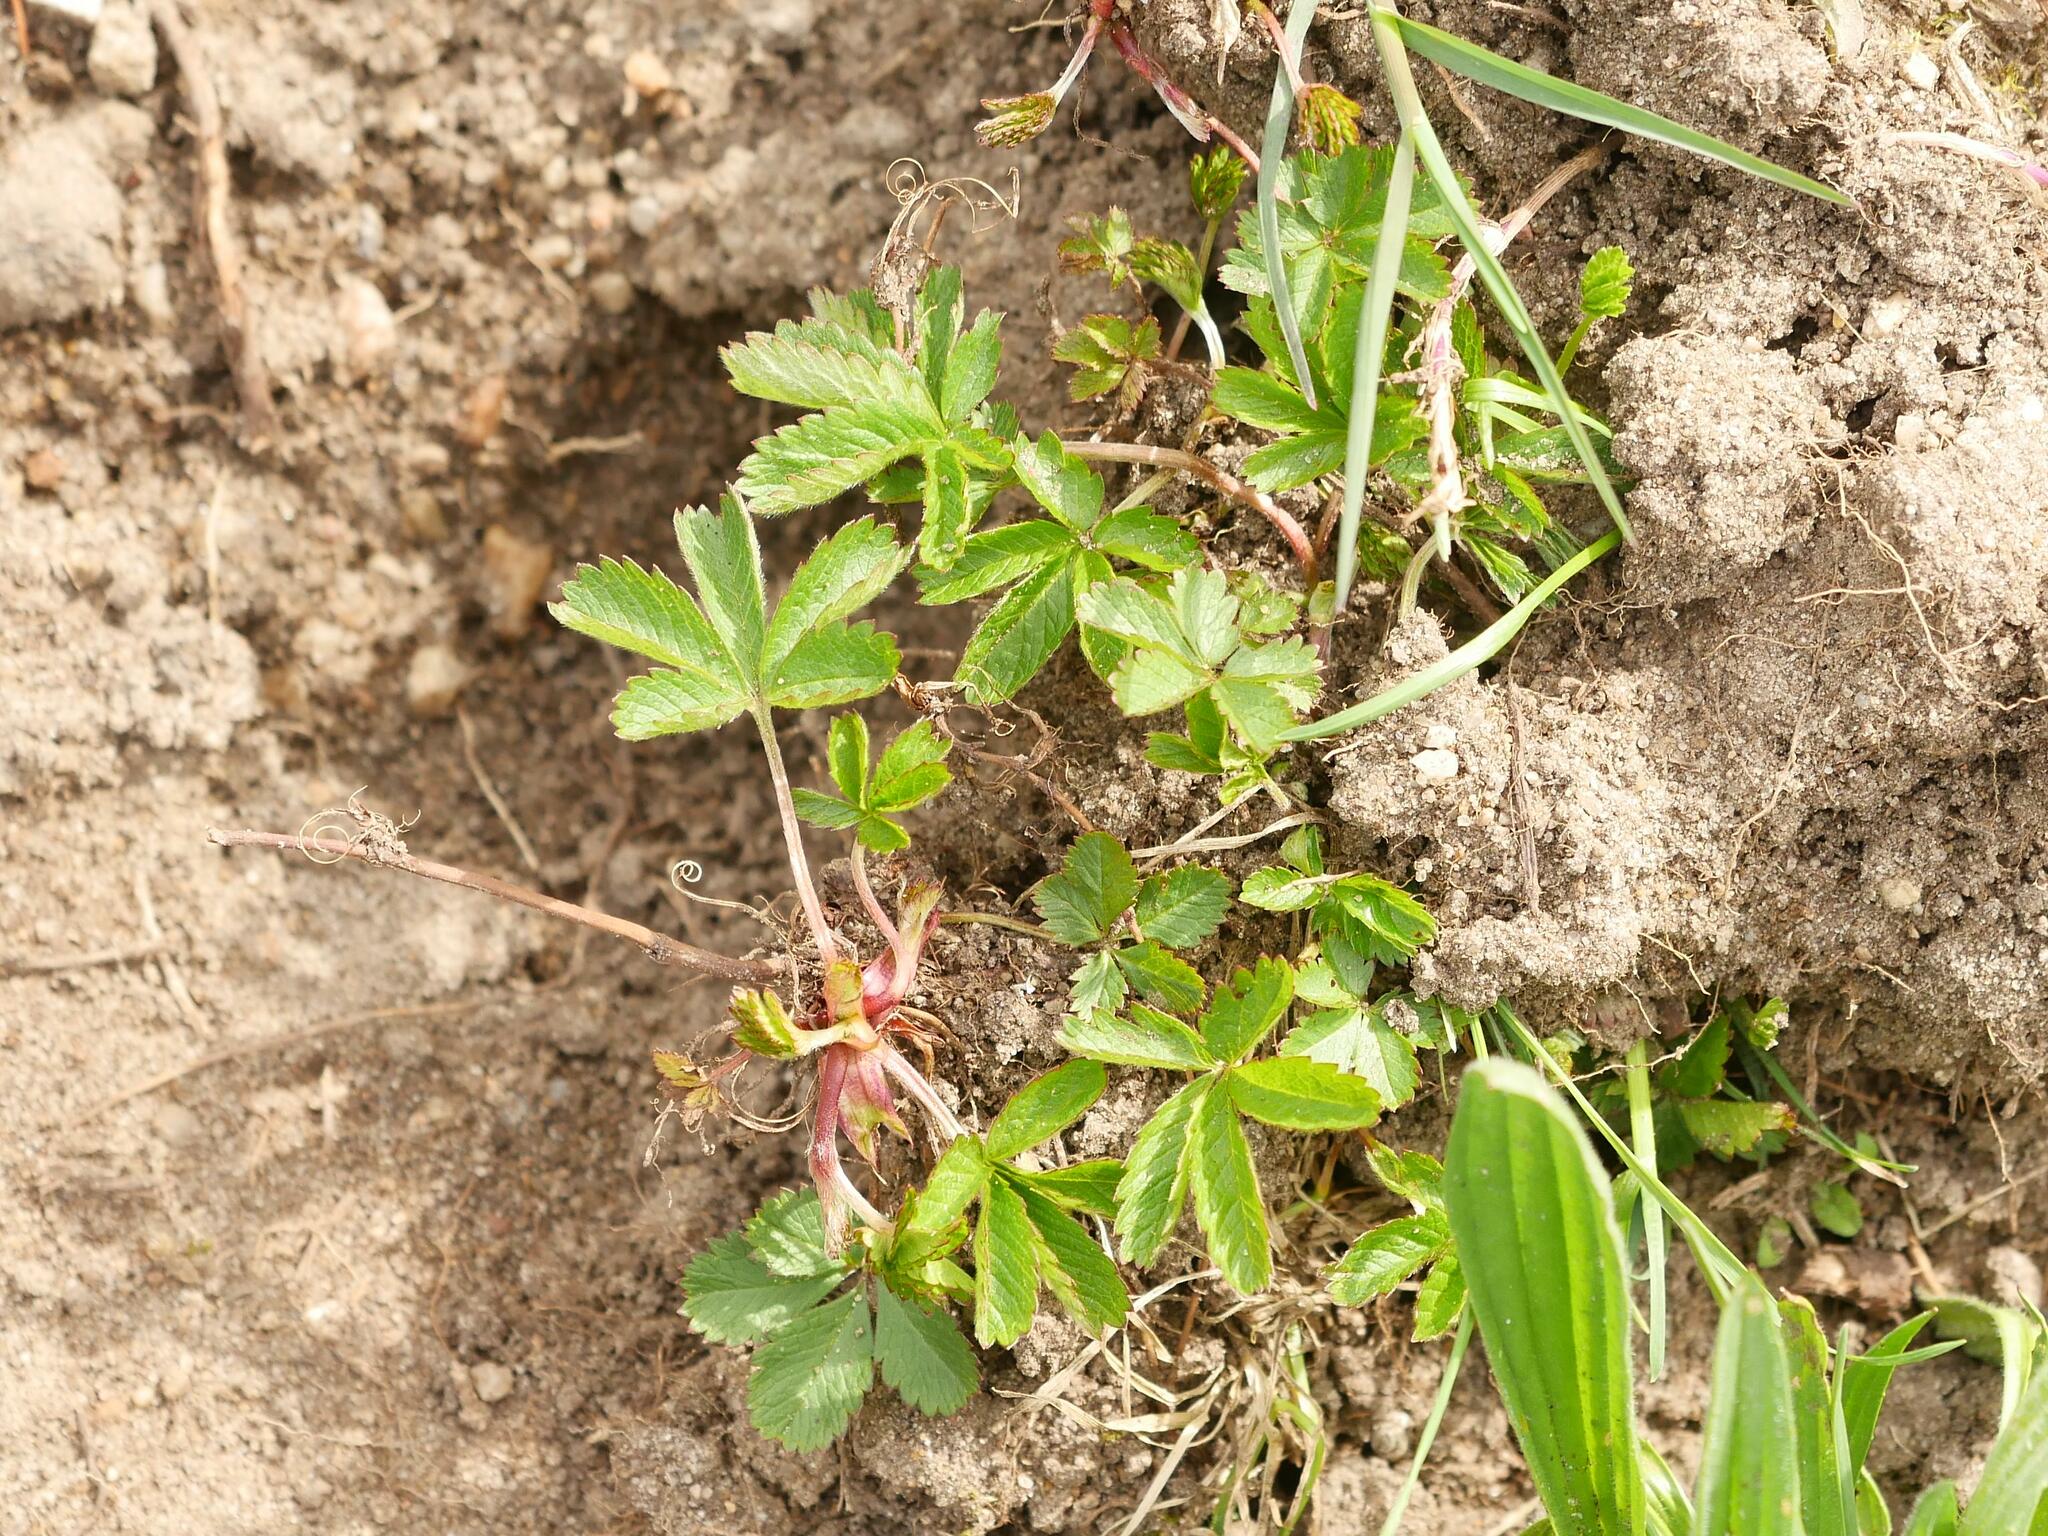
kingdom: Plantae
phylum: Tracheophyta
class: Magnoliopsida
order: Rosales
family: Rosaceae
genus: Potentilla
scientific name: Potentilla reptans
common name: Creeping cinquefoil
